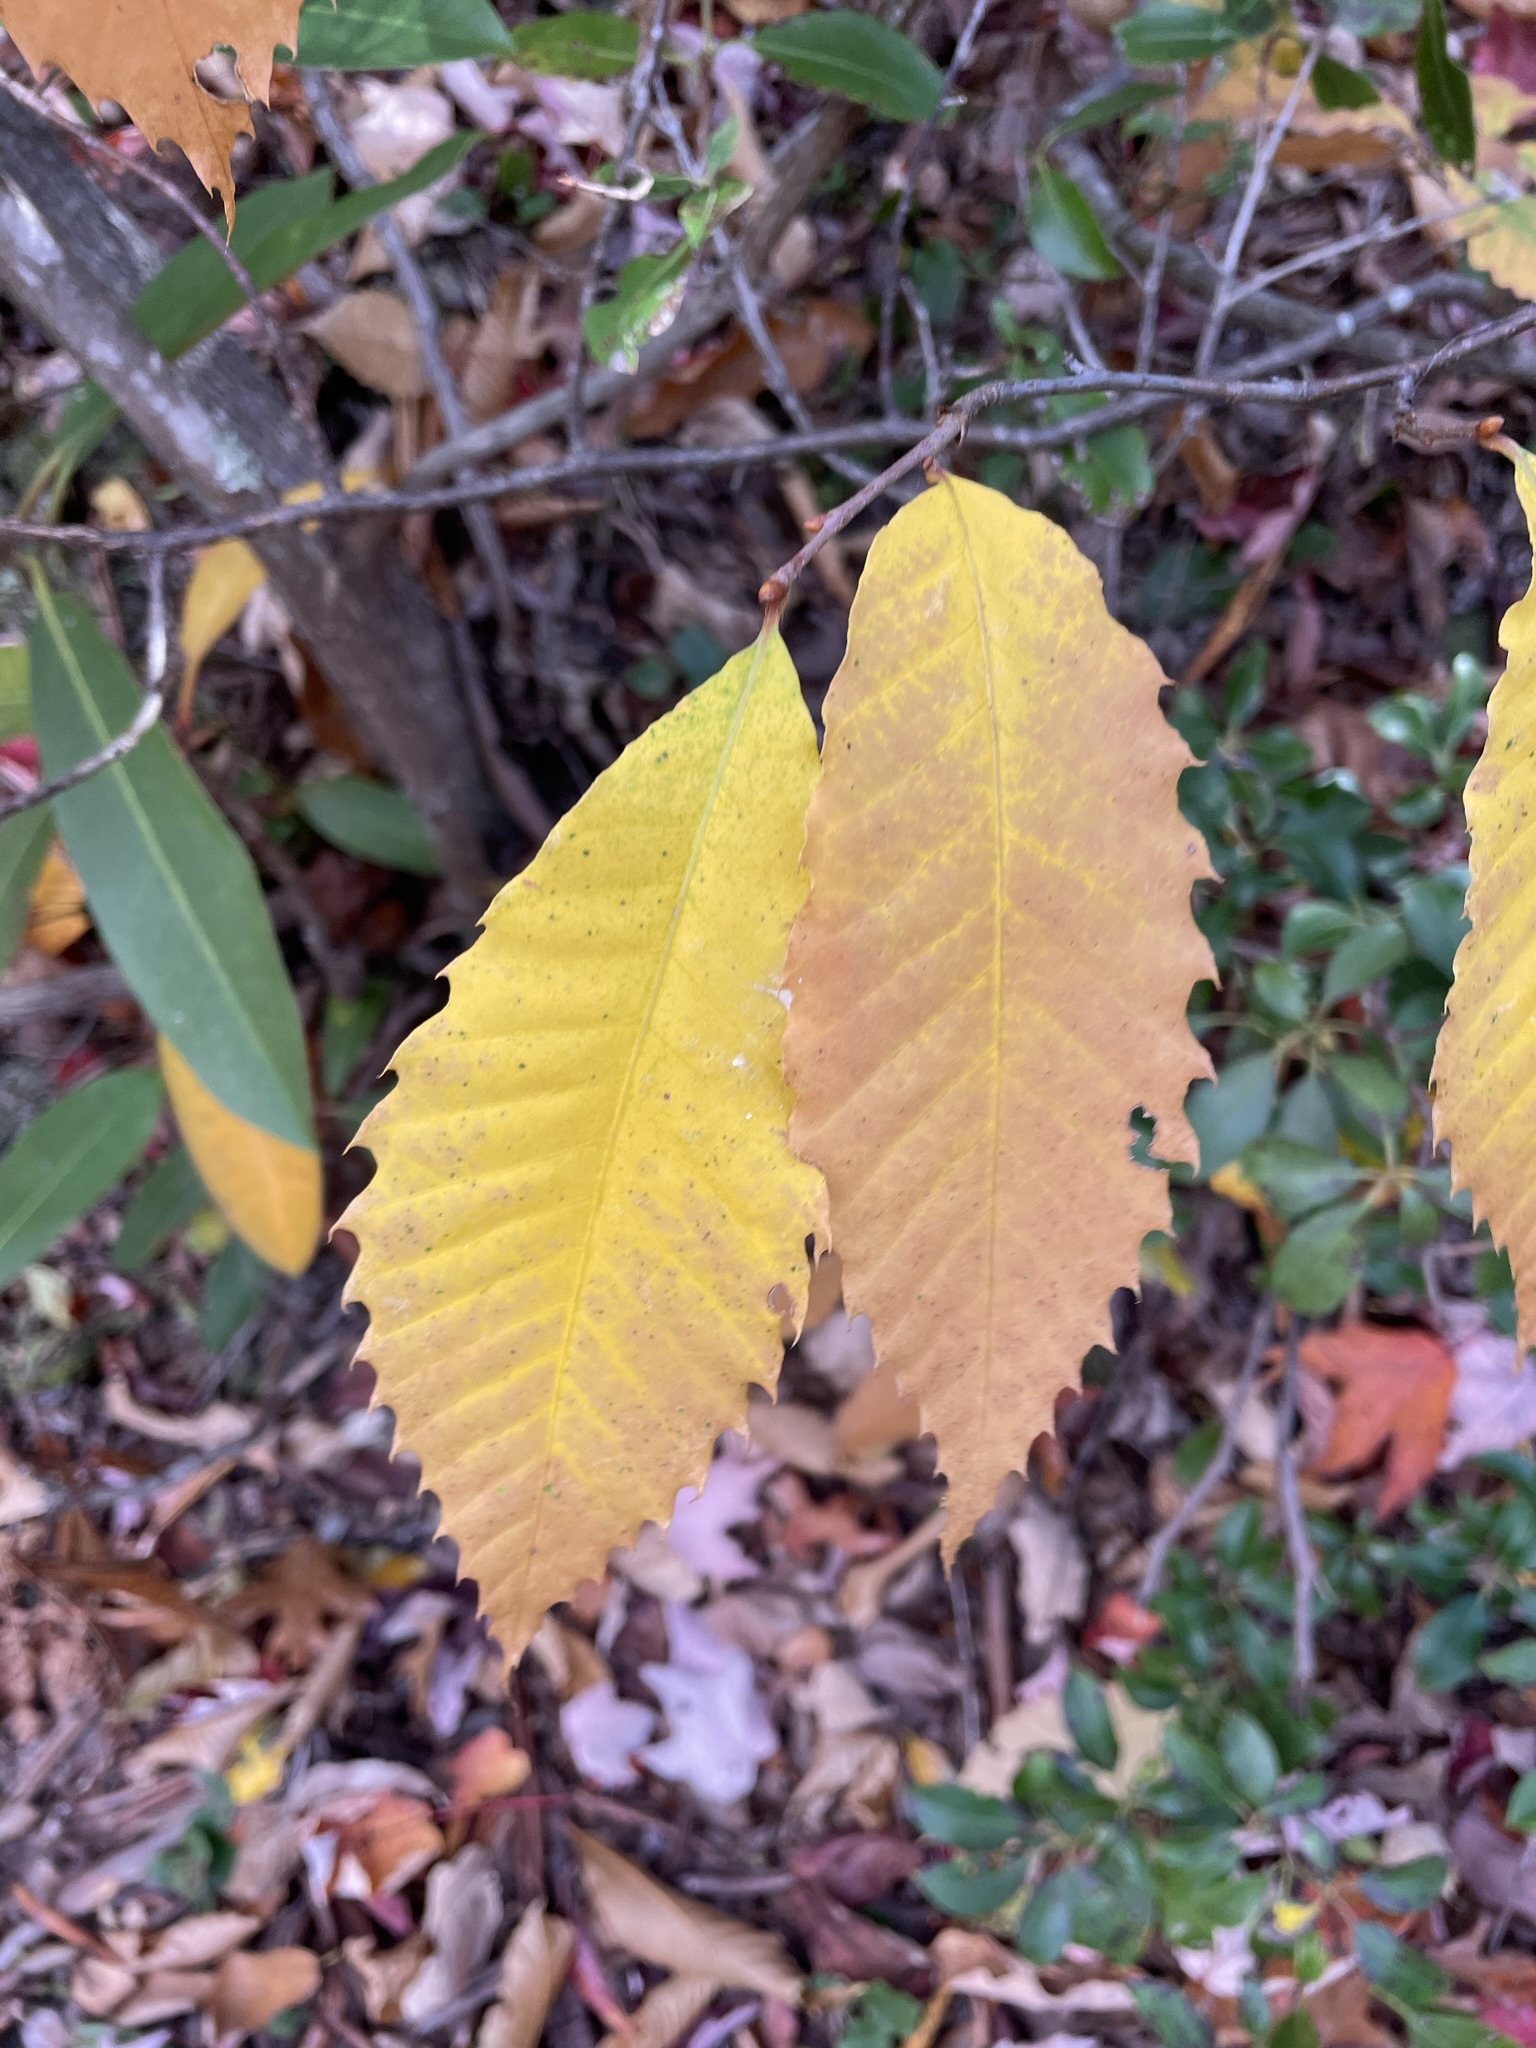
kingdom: Plantae
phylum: Tracheophyta
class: Magnoliopsida
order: Fagales
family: Fagaceae
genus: Castanea
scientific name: Castanea dentata
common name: American chestnut
